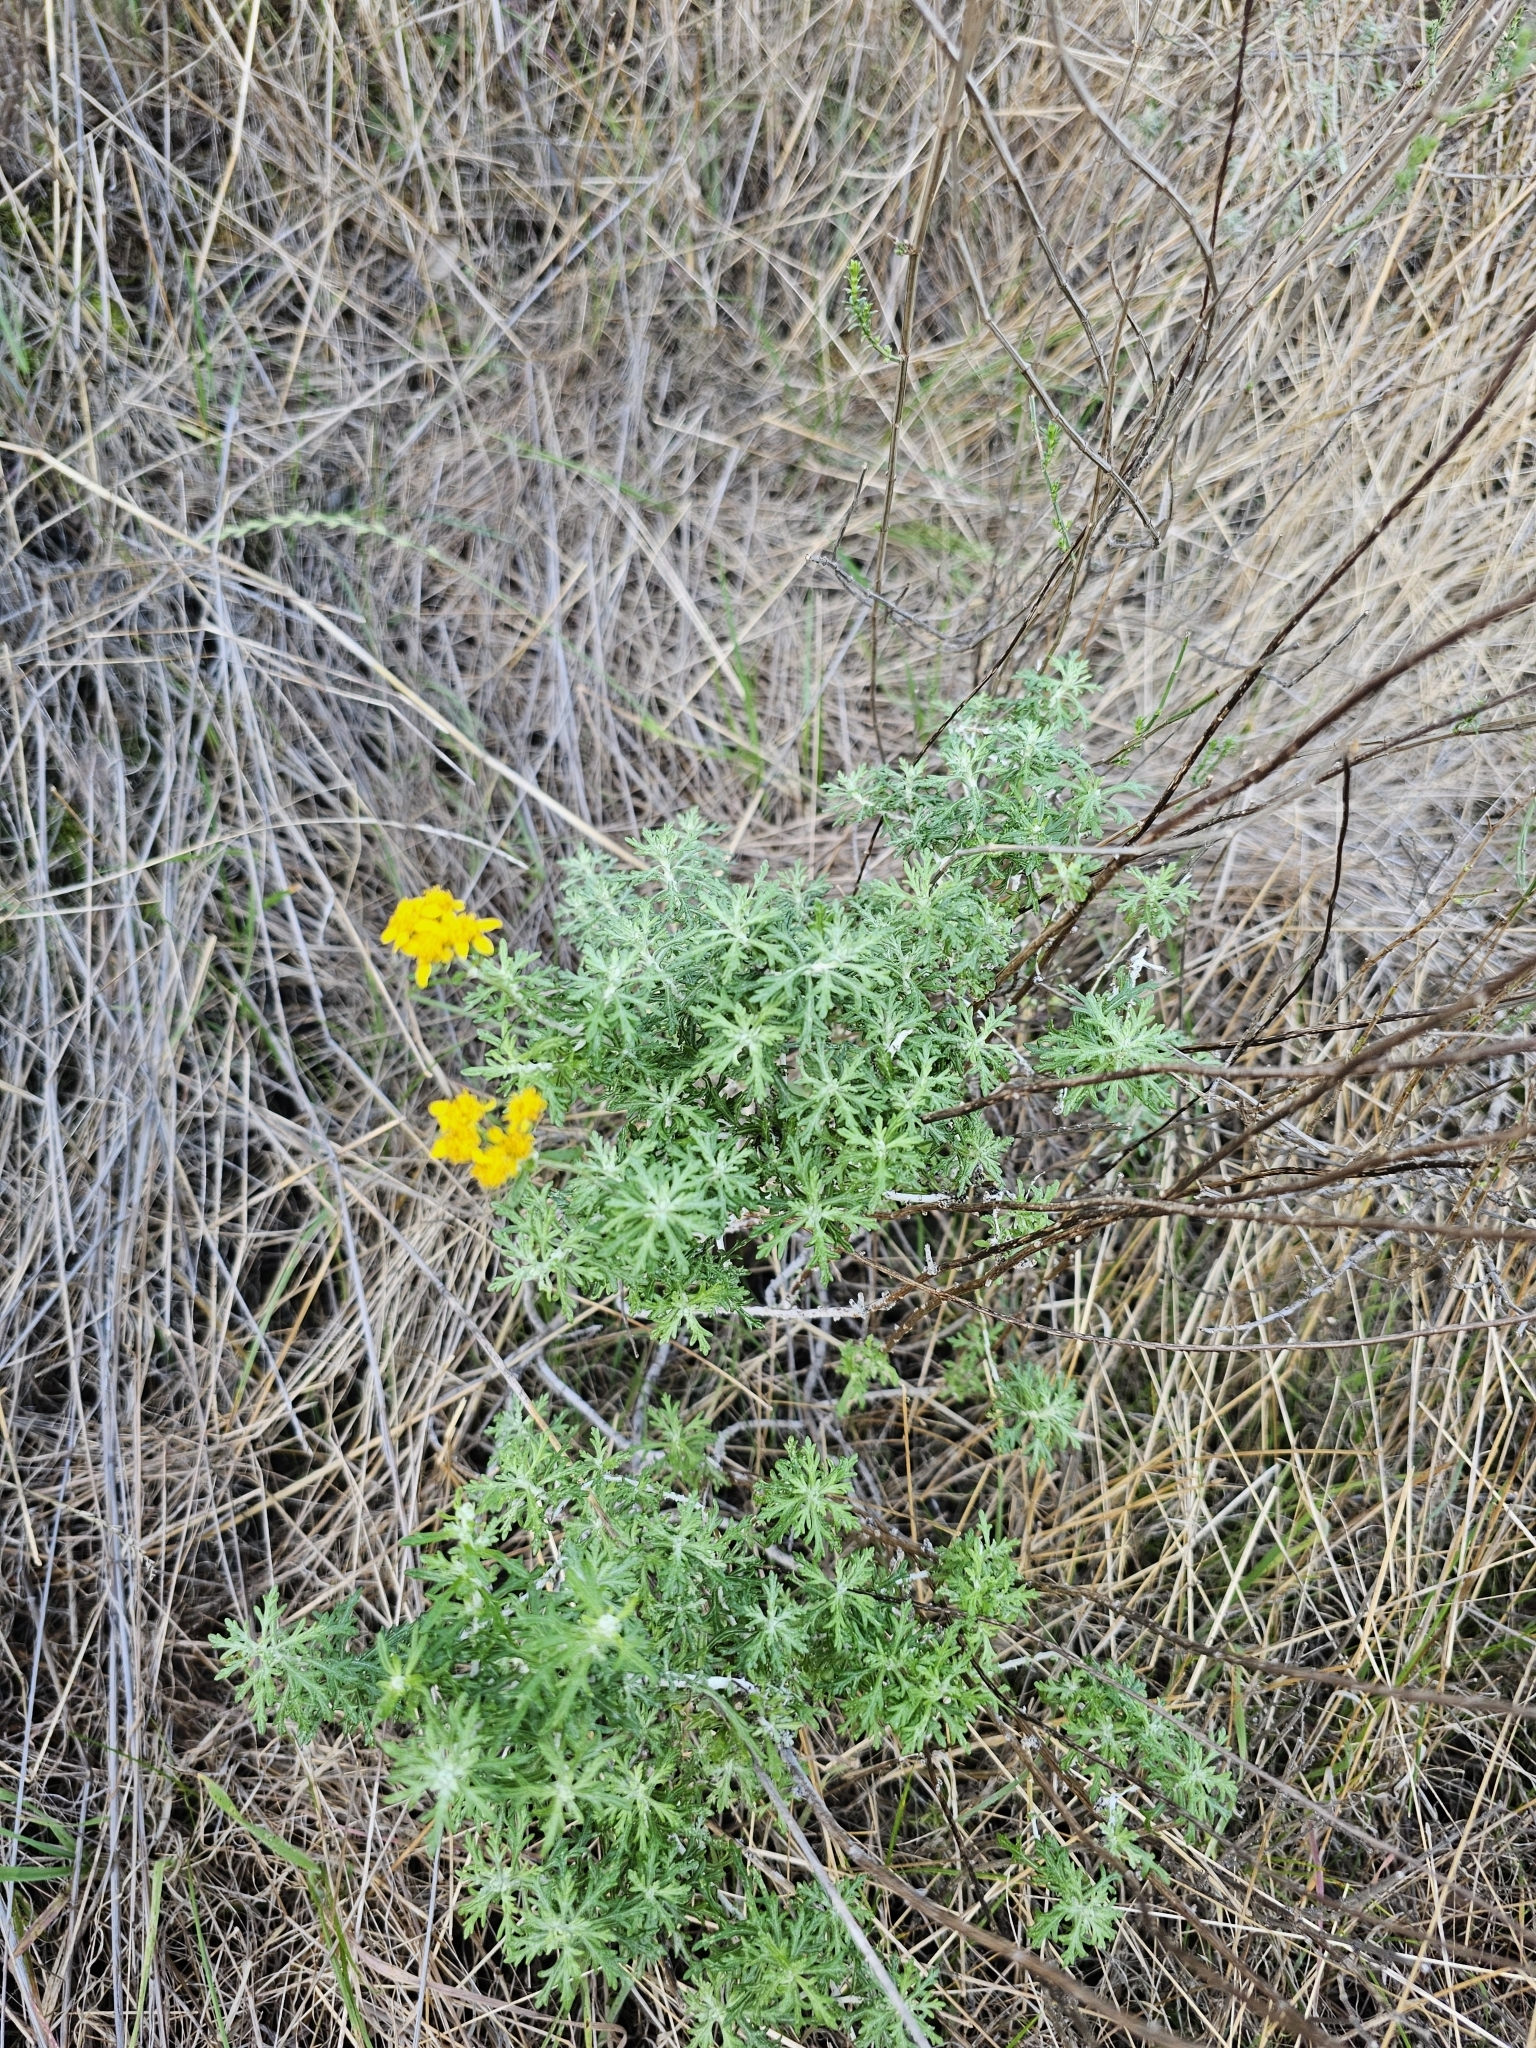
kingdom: Plantae
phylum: Tracheophyta
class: Magnoliopsida
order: Asterales
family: Asteraceae
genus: Eriophyllum
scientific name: Eriophyllum confertiflorum
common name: Golden-yarrow
